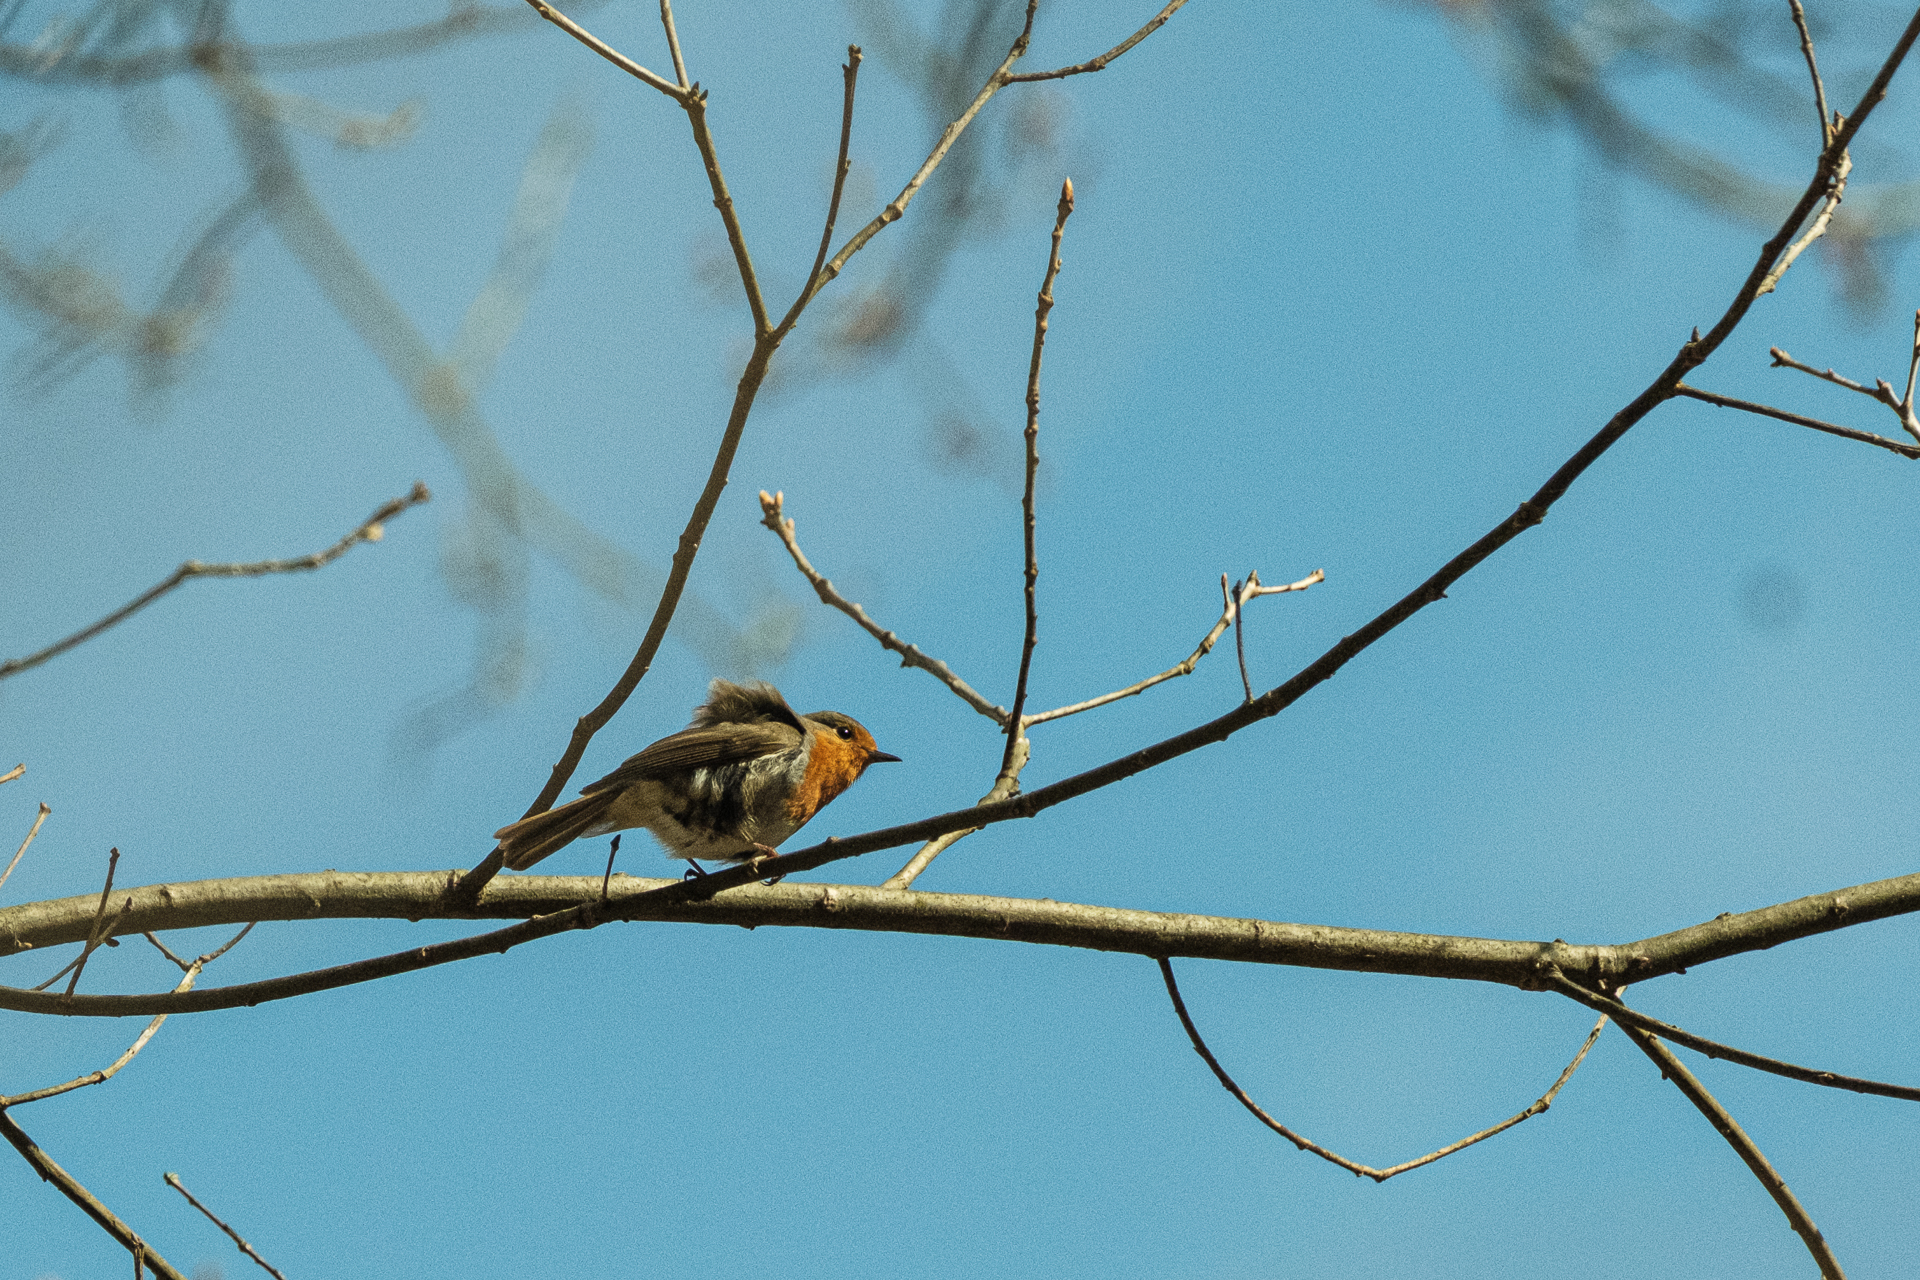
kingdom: Animalia
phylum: Chordata
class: Aves
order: Passeriformes
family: Muscicapidae
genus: Erithacus
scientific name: Erithacus rubecula
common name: European robin
